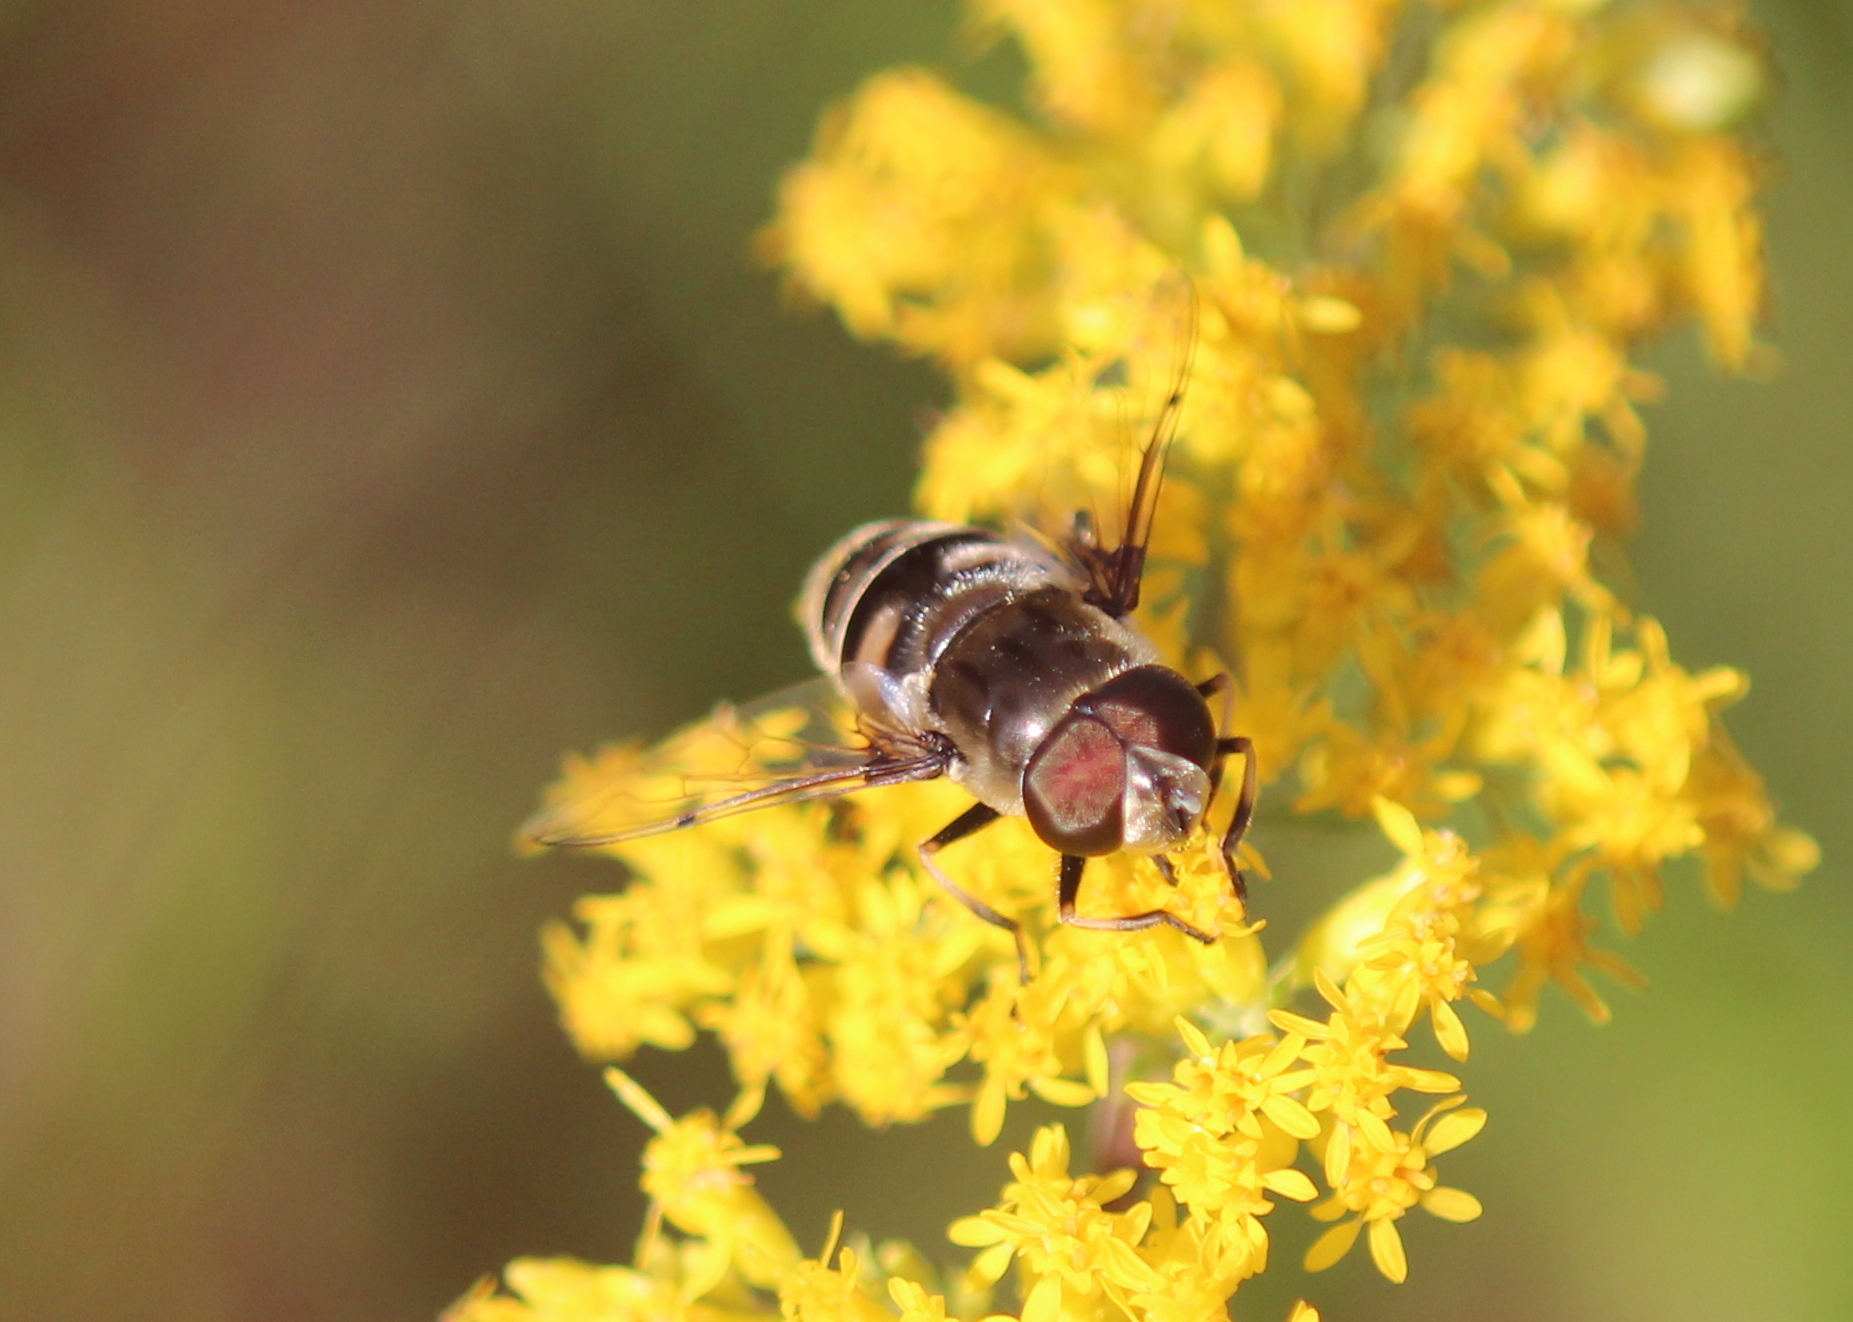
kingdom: Animalia
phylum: Arthropoda
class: Insecta
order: Diptera
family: Syrphidae
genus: Eristalis
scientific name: Eristalis dimidiata
